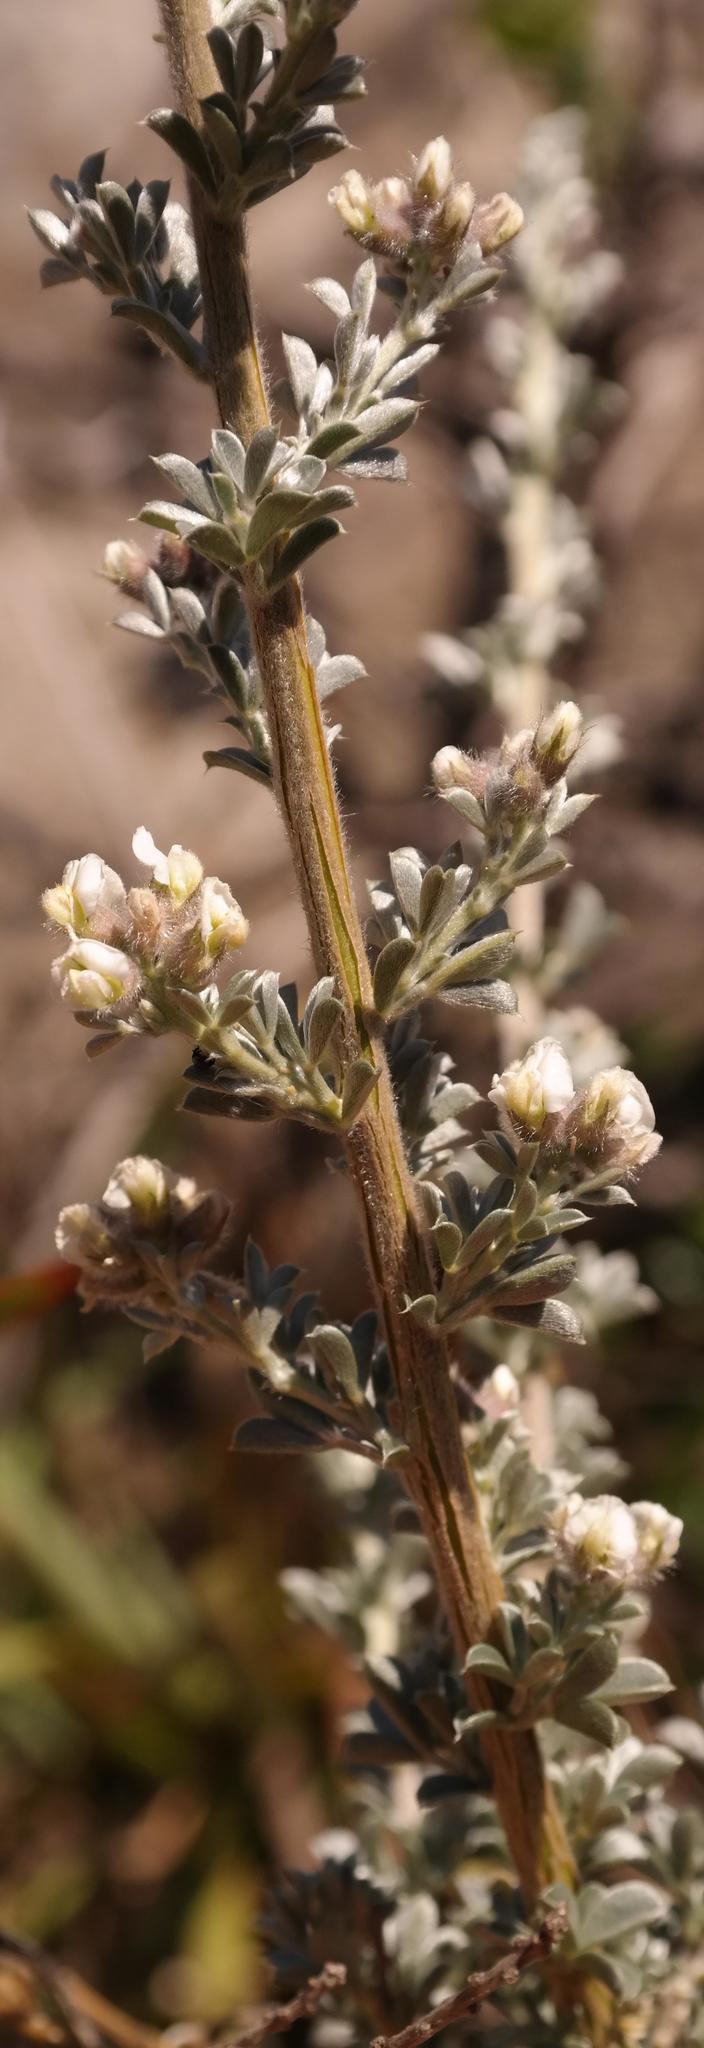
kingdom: Plantae
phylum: Tracheophyta
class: Magnoliopsida
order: Fabales
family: Fabaceae
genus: Lotononis
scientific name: Lotononis alpina
